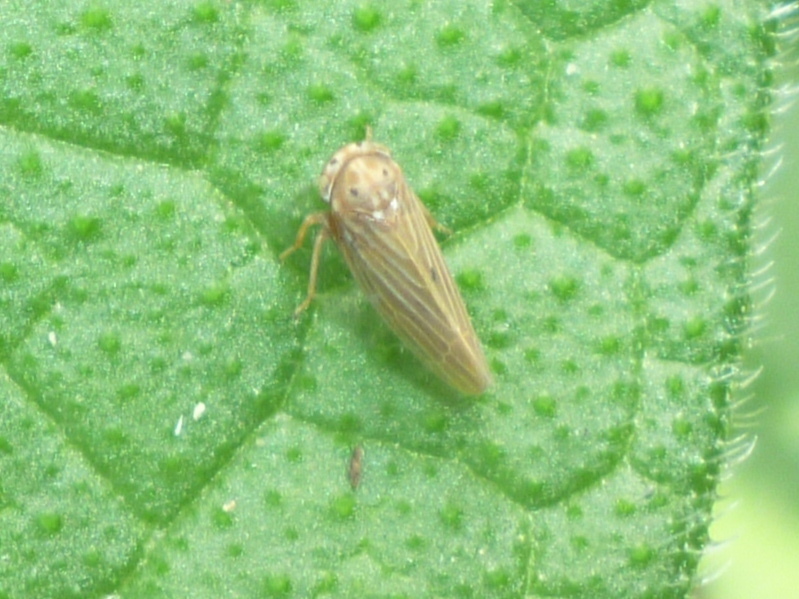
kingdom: Animalia
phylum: Arthropoda
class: Insecta
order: Hemiptera
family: Cicadellidae
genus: Agallia
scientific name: Agallia constricta
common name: The constricted leafhopper
